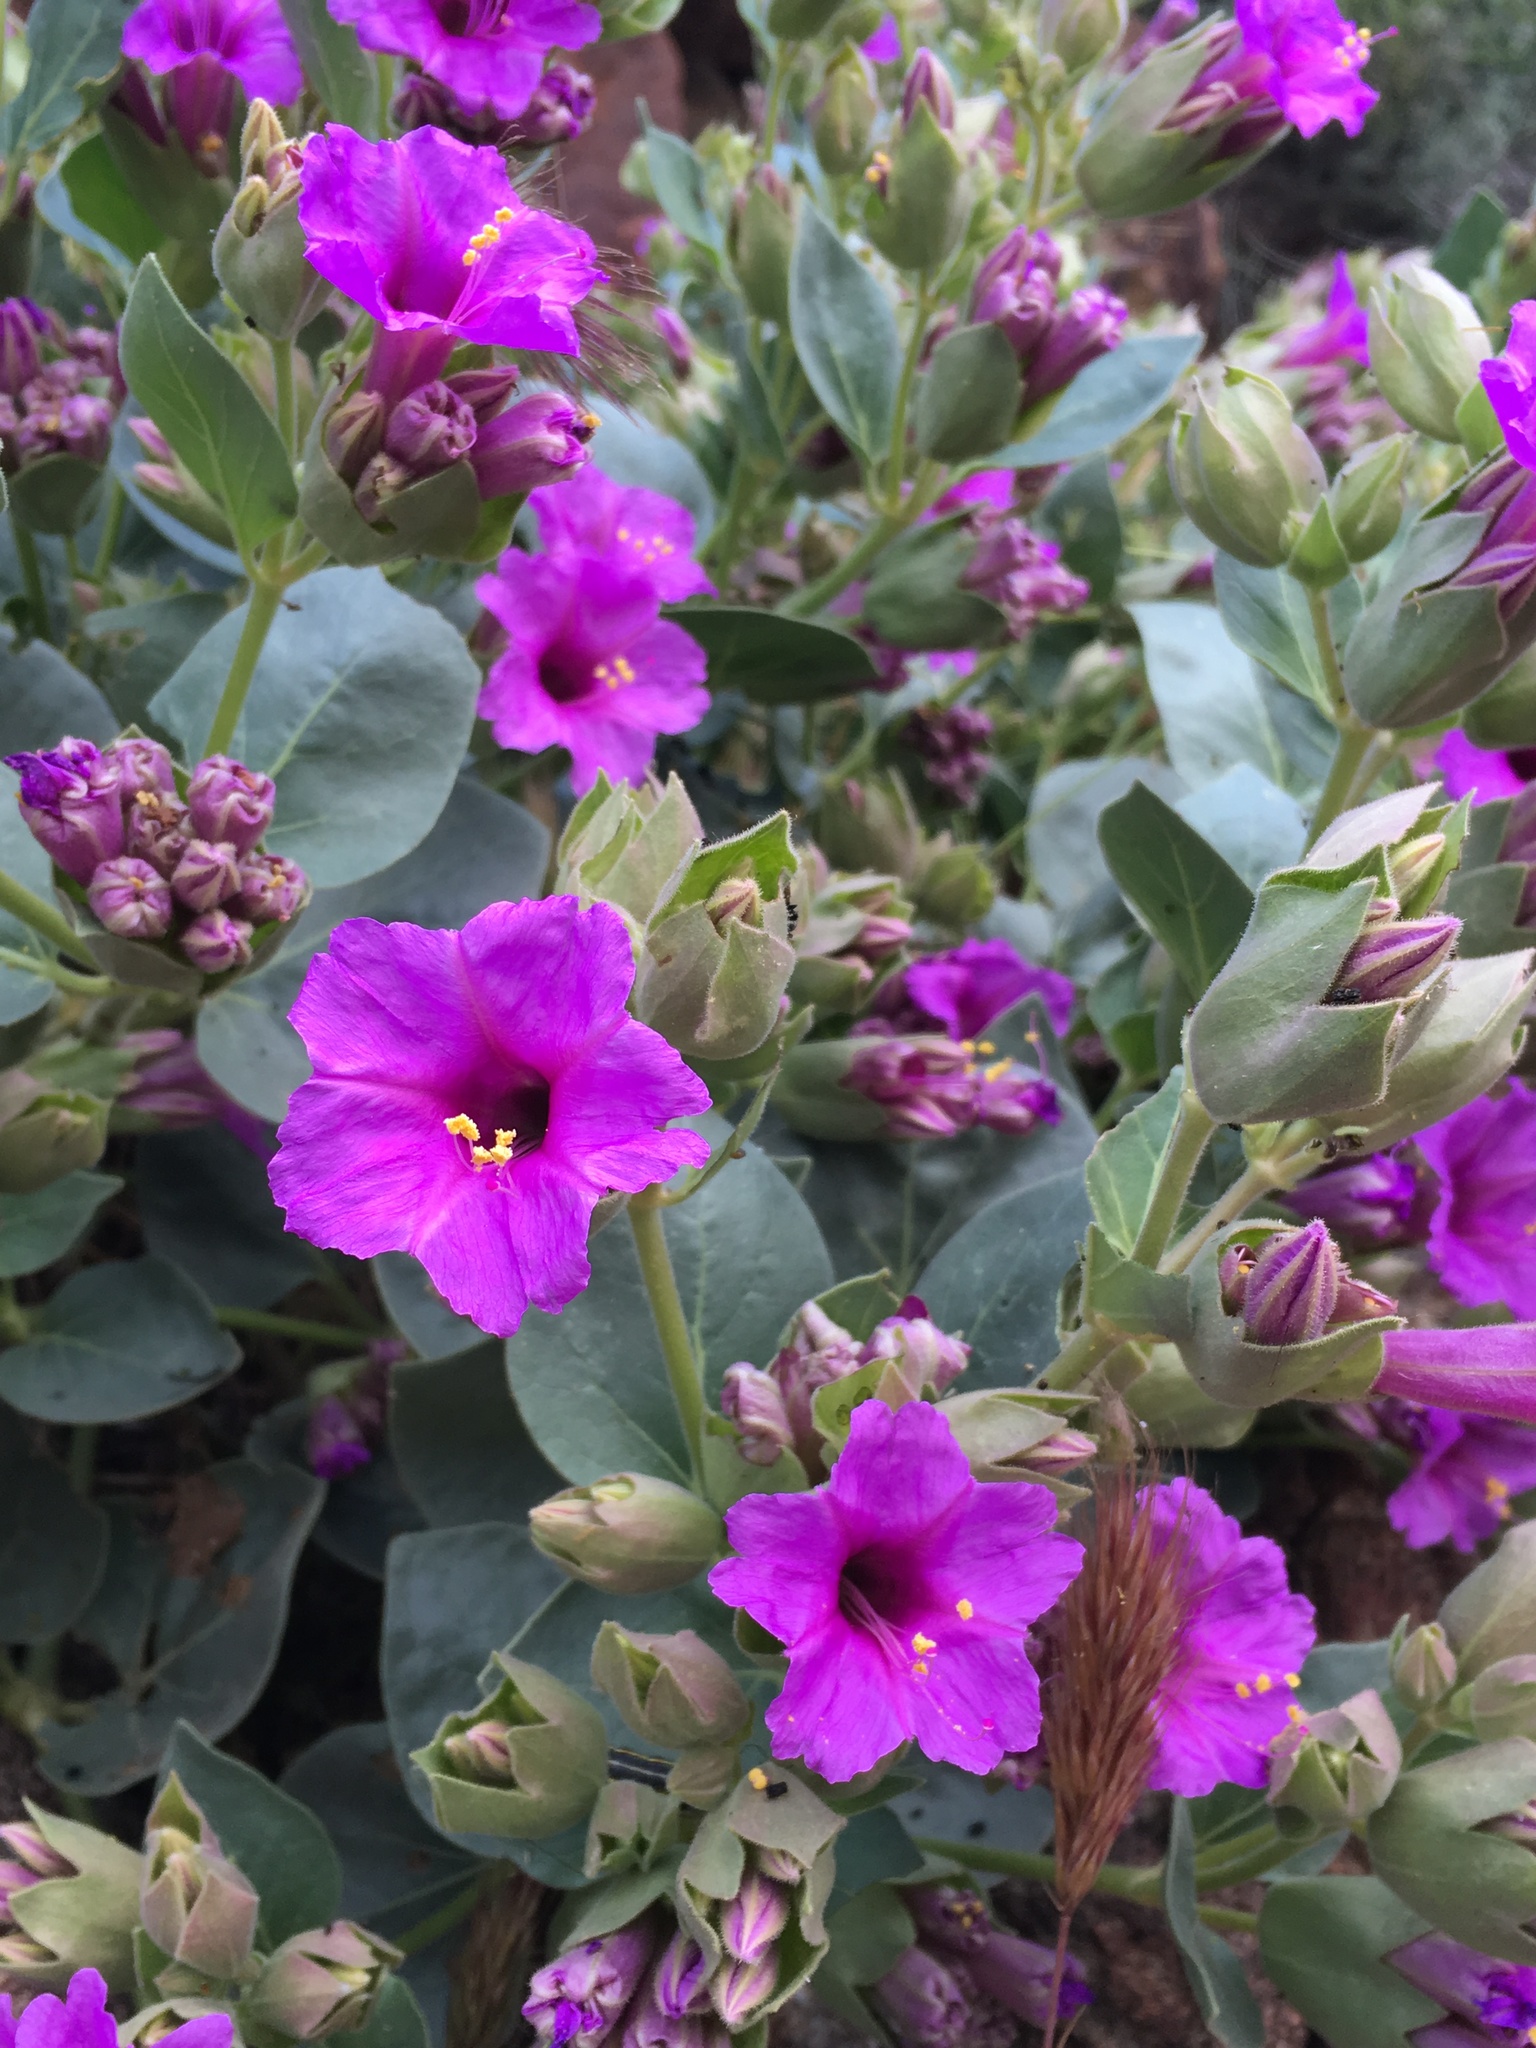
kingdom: Plantae
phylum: Tracheophyta
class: Magnoliopsida
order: Caryophyllales
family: Nyctaginaceae
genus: Mirabilis
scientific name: Mirabilis multiflora
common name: Froebel's four-o'clock
